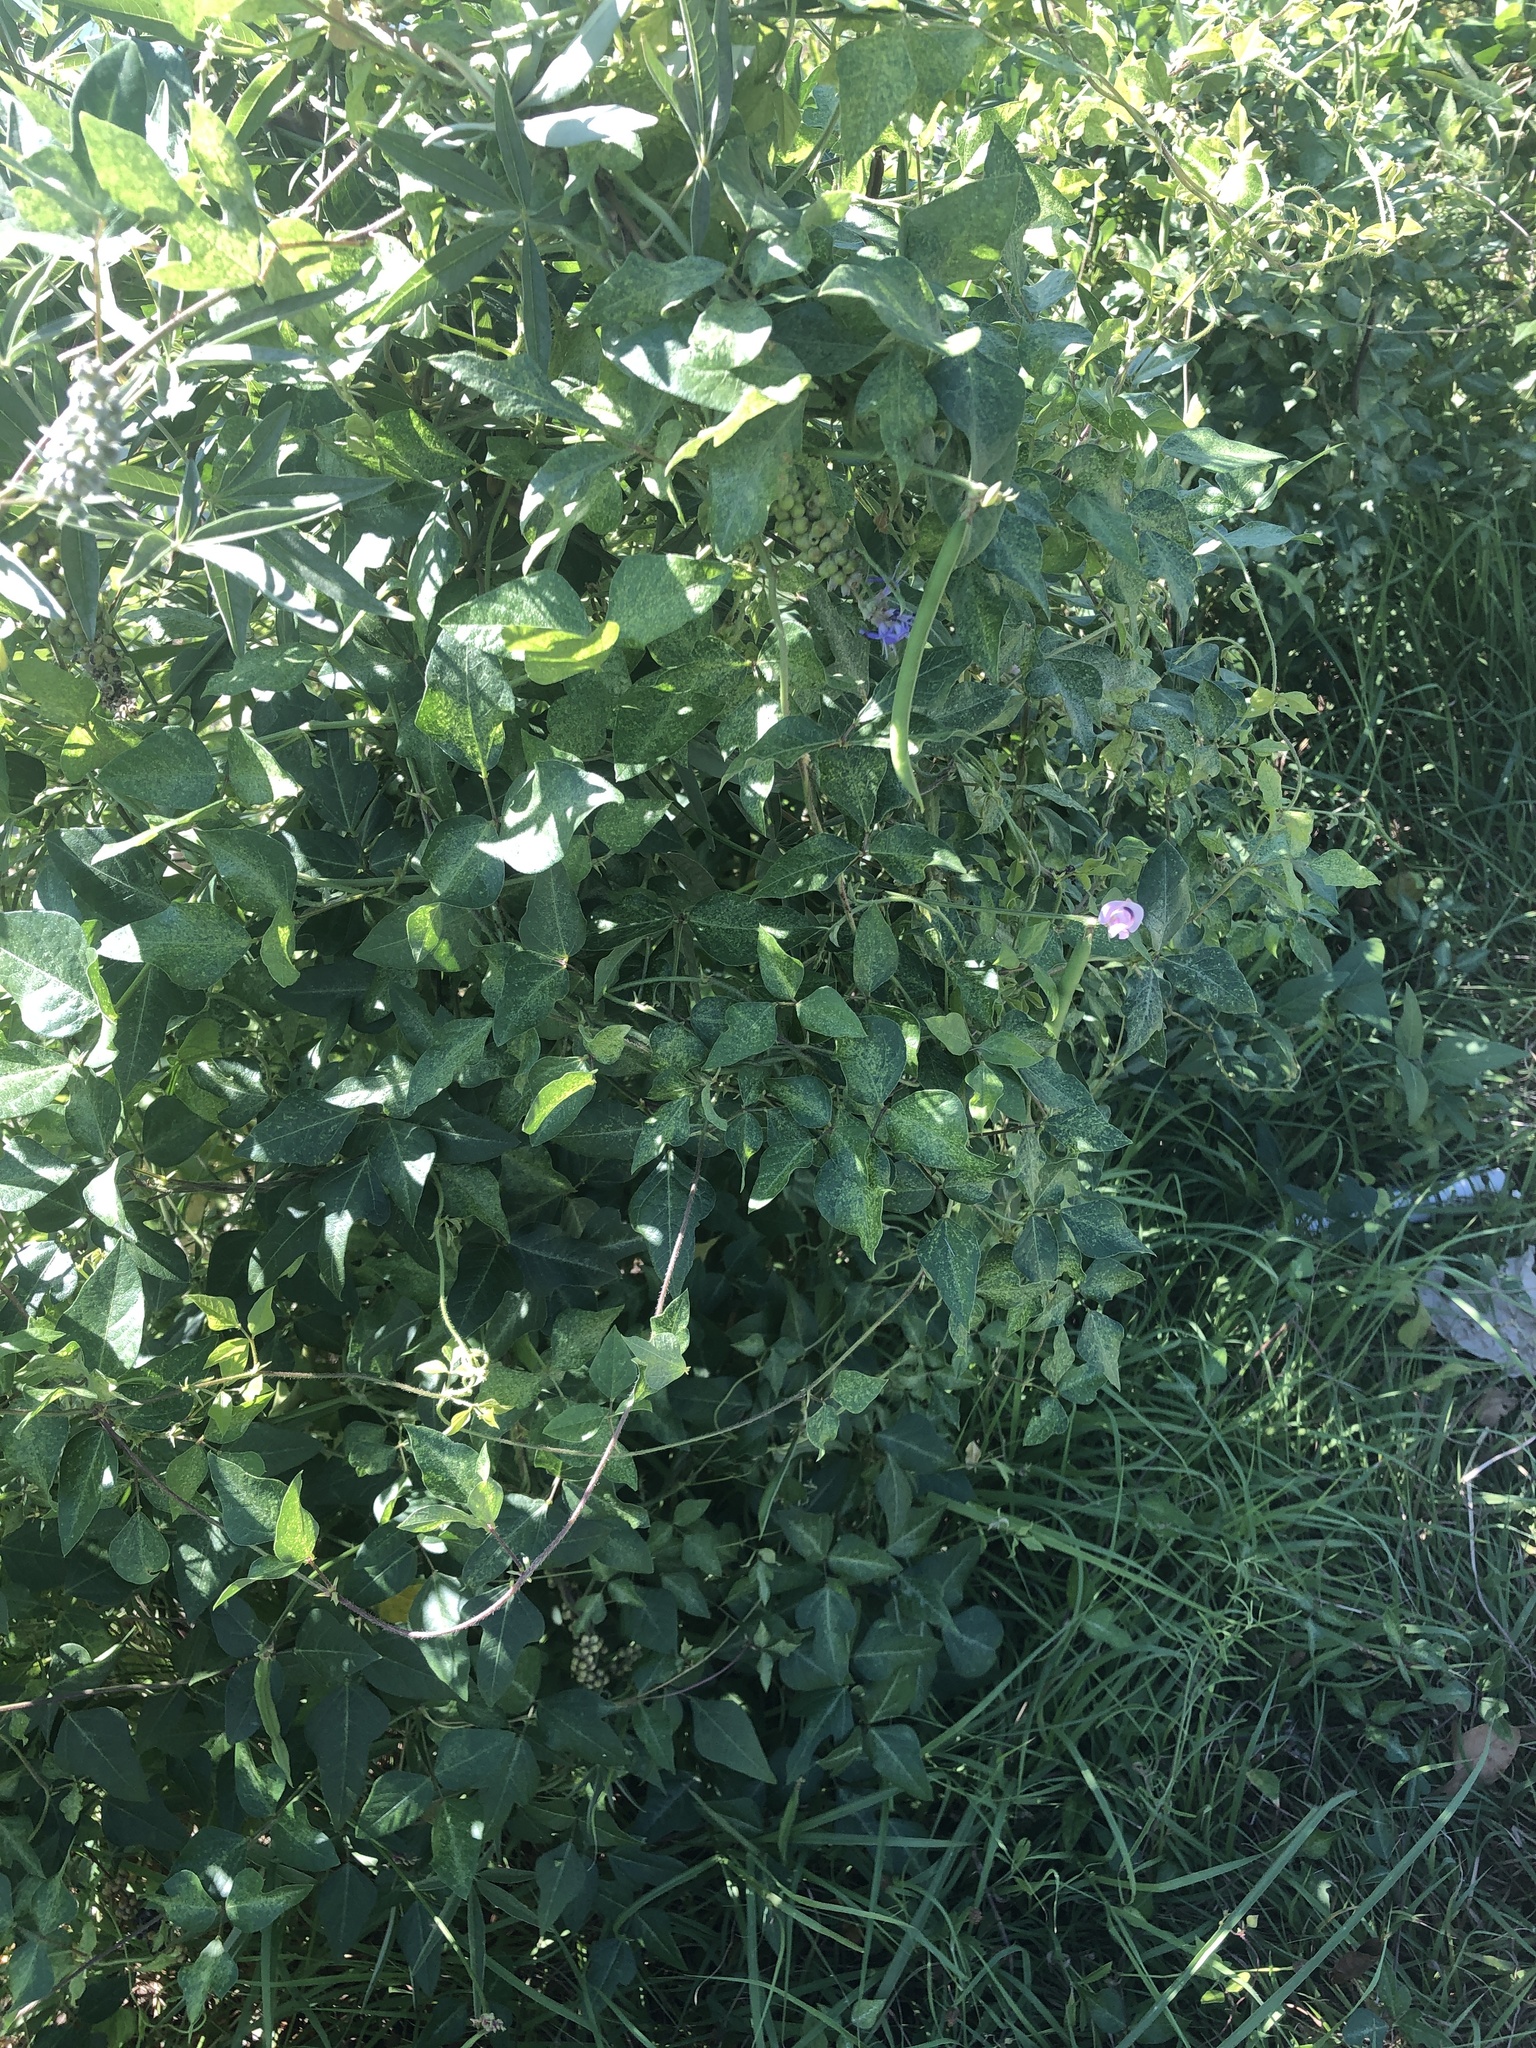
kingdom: Plantae
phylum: Tracheophyta
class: Magnoliopsida
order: Fabales
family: Fabaceae
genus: Strophostyles
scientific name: Strophostyles helvola
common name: Trailing wild bean
